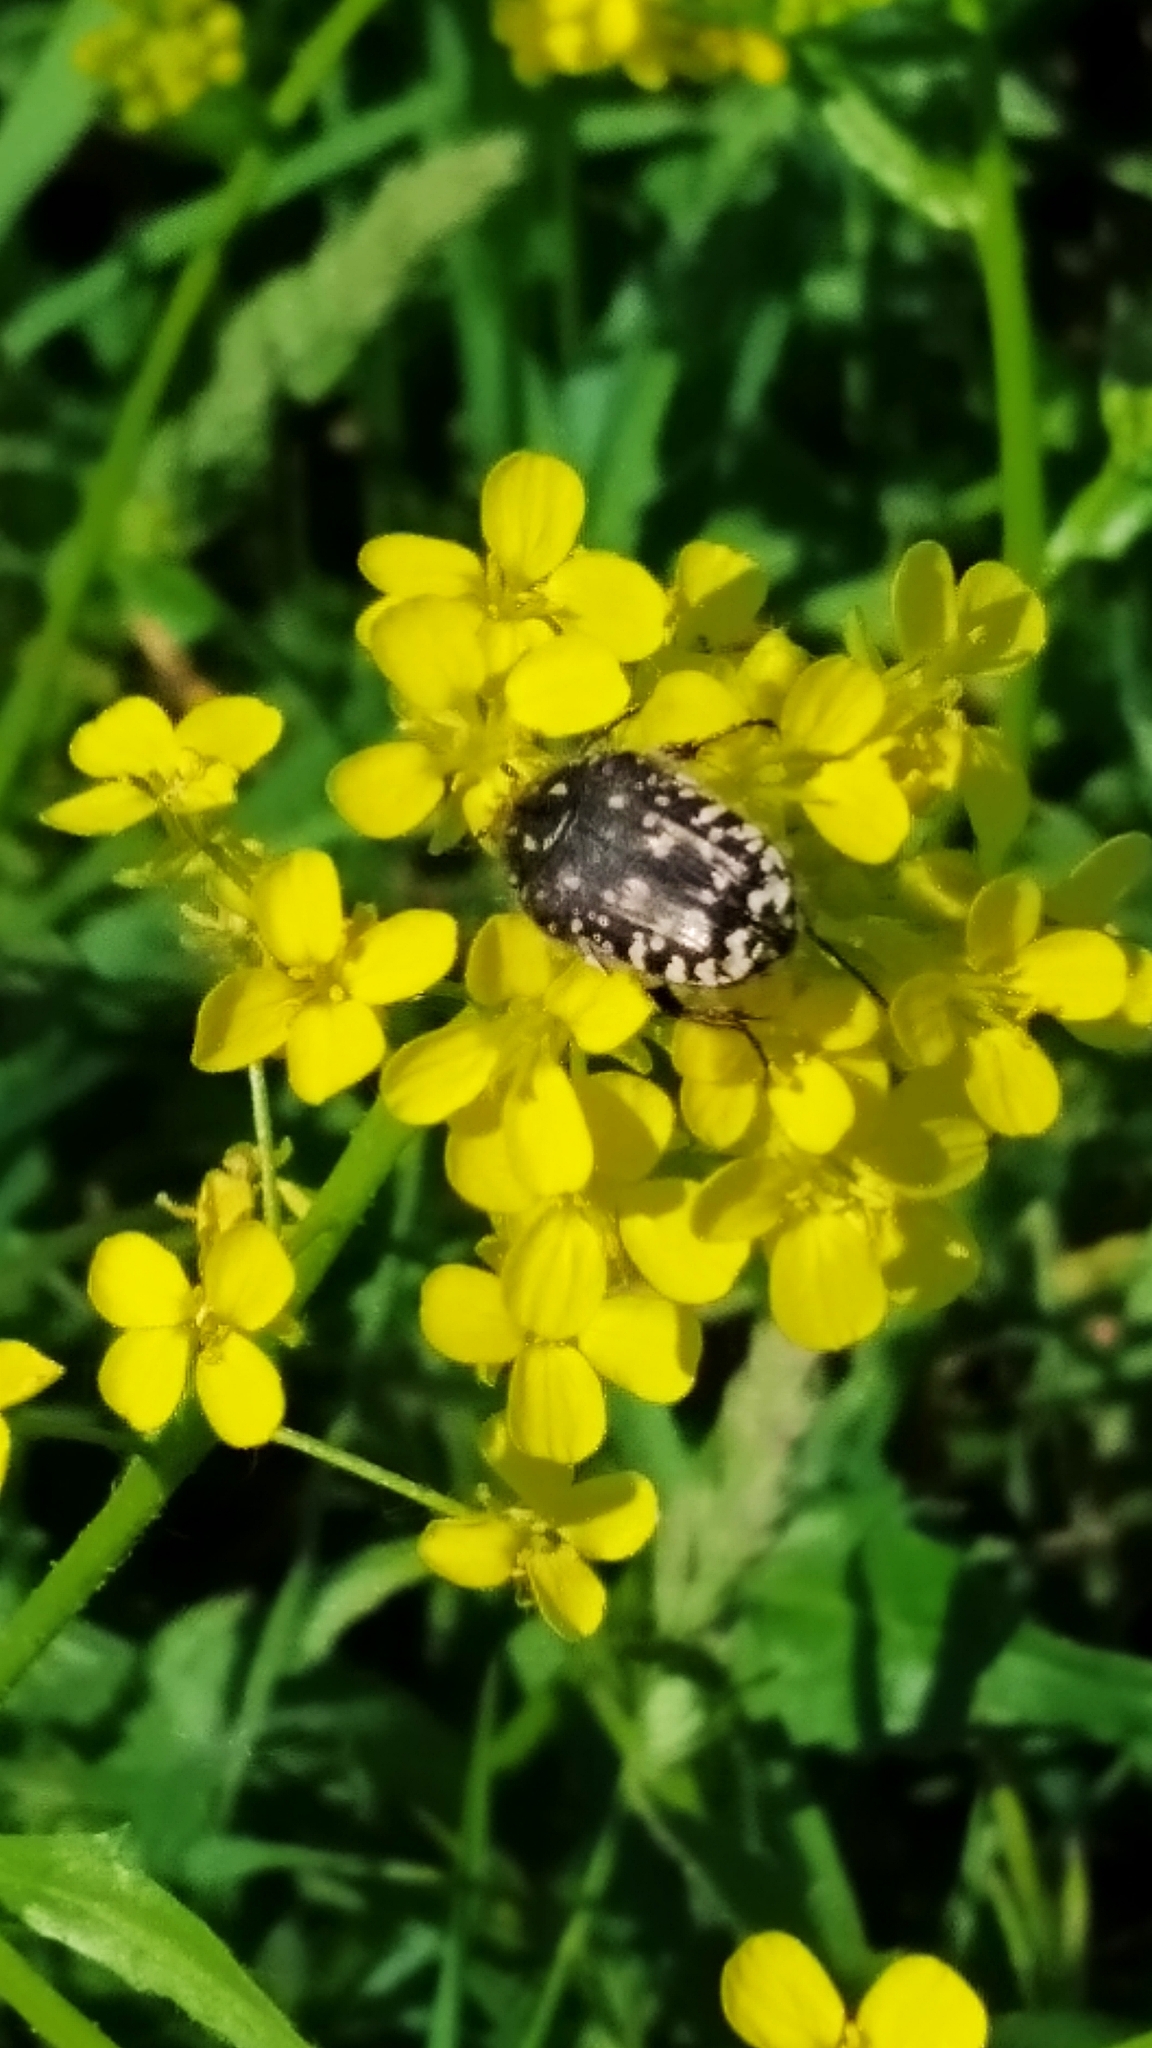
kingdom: Animalia
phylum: Arthropoda
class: Insecta
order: Coleoptera
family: Scarabaeidae
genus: Oxythyrea
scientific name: Oxythyrea funesta
